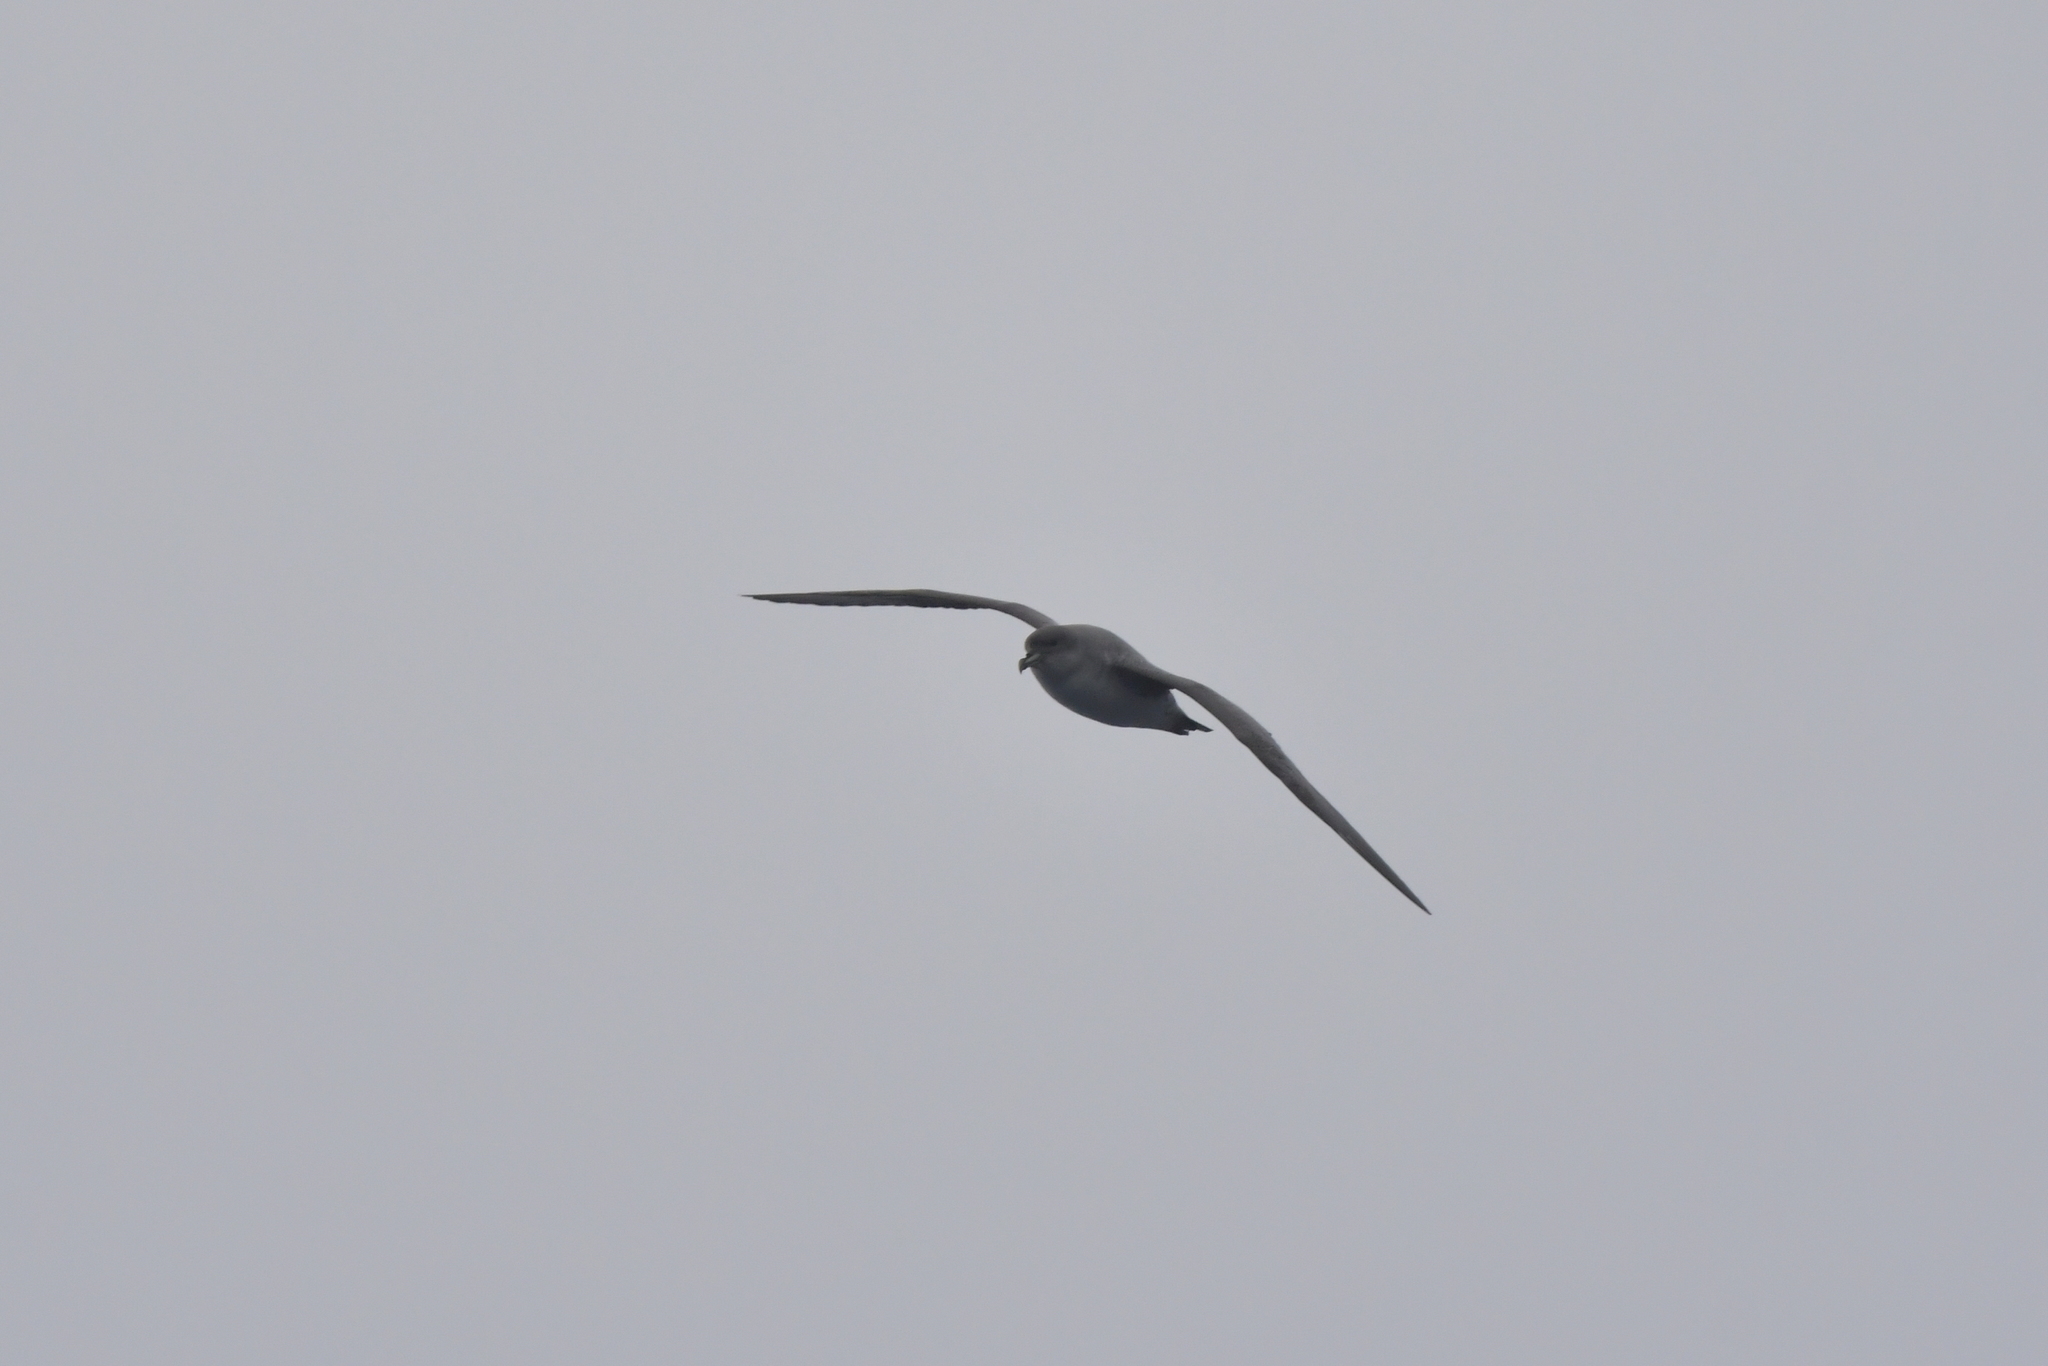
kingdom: Animalia
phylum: Chordata
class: Aves
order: Procellariiformes
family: Procellariidae
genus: Procellaria
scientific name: Procellaria cinerea
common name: Grey petrel
